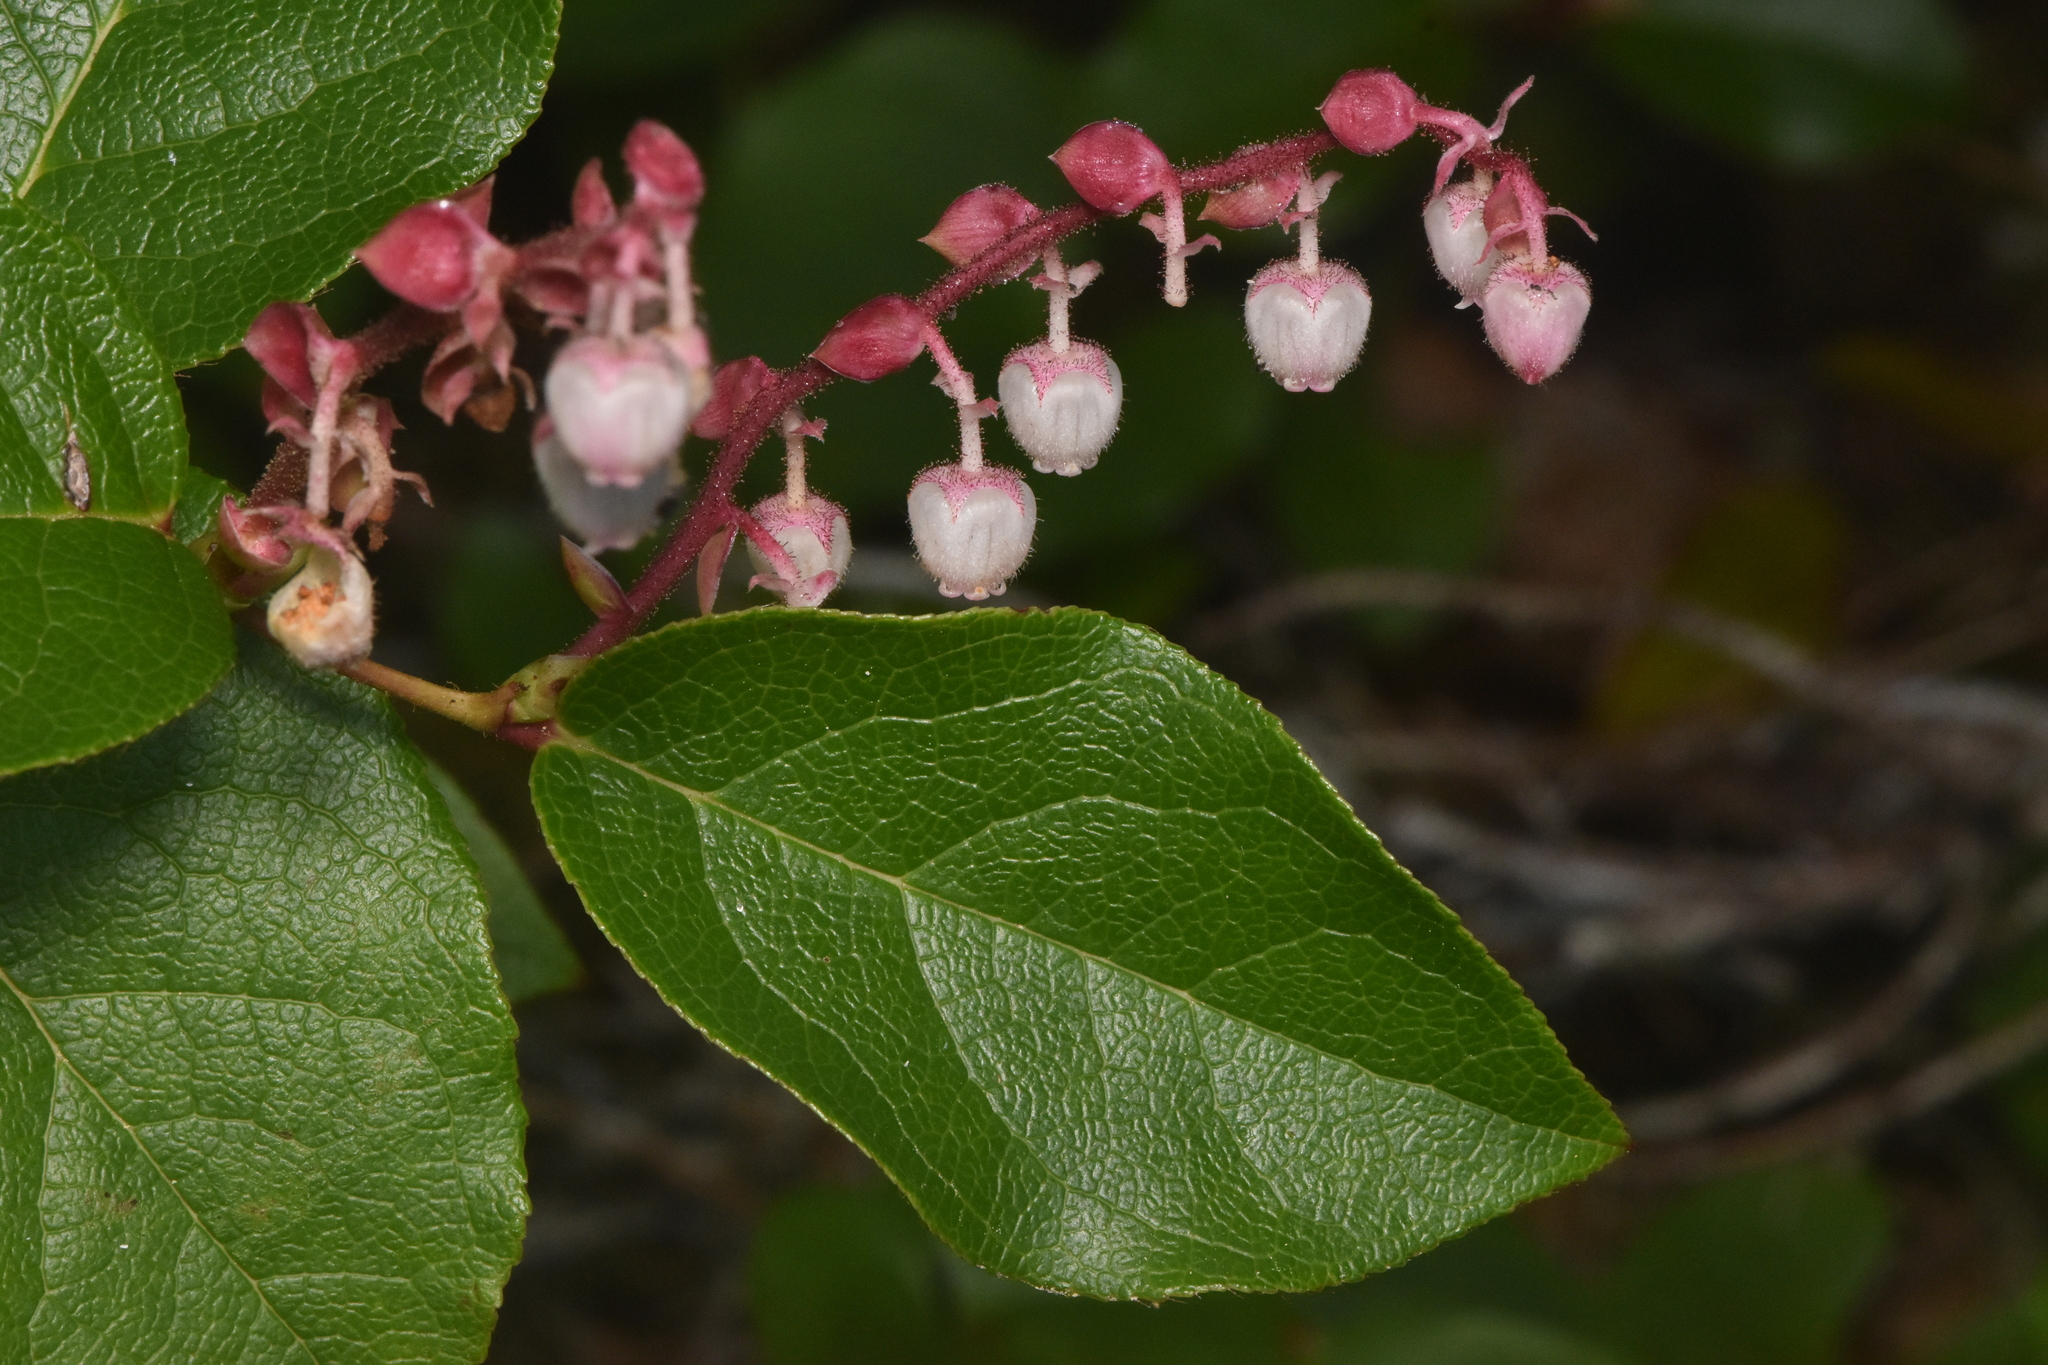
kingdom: Plantae
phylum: Tracheophyta
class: Magnoliopsida
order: Ericales
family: Ericaceae
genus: Gaultheria
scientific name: Gaultheria shallon
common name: Shallon
